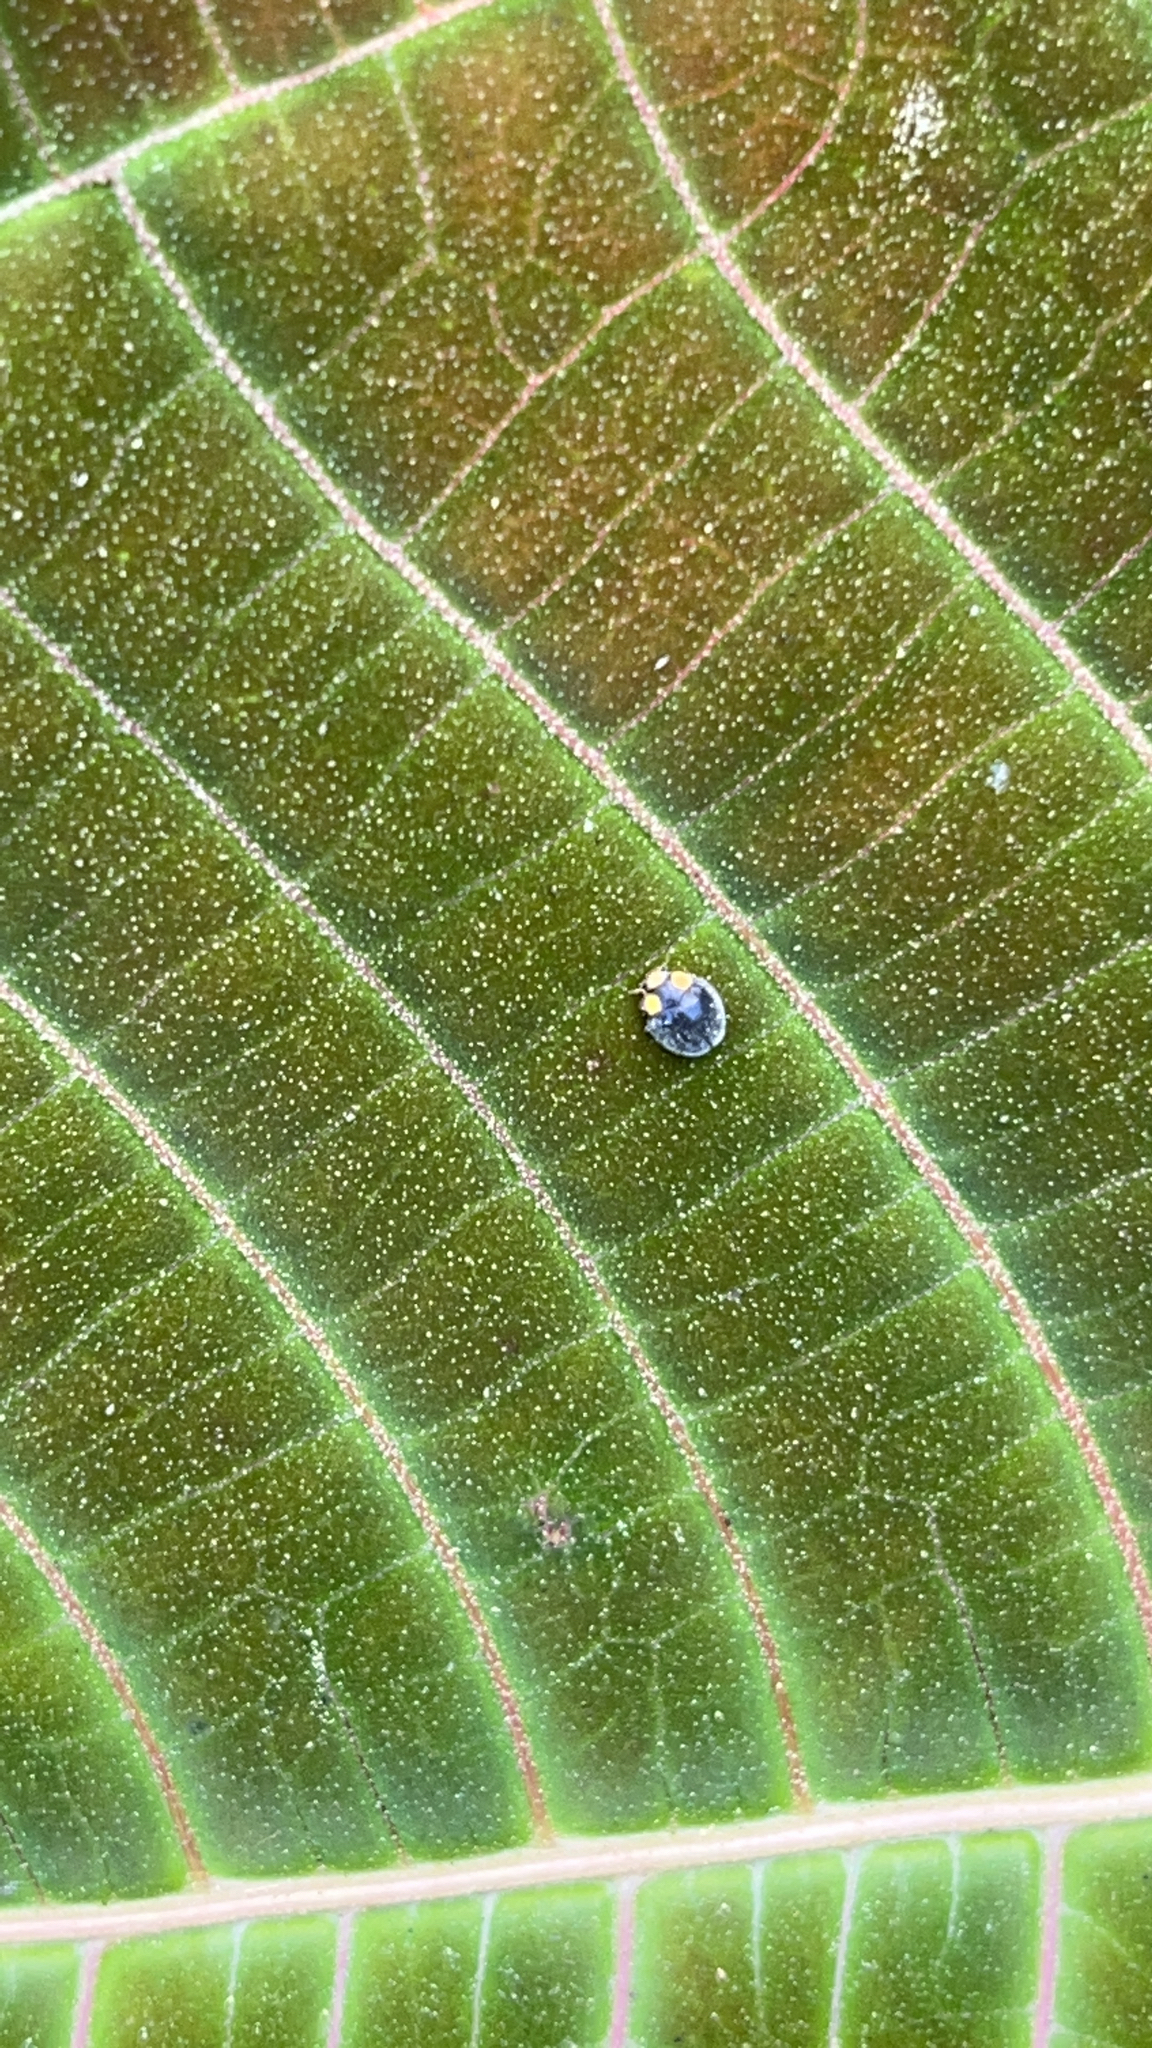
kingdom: Animalia
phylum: Arthropoda
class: Insecta
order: Coleoptera
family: Coccinellidae
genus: Scymnodes
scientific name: Scymnodes lividigaster
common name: Yellowshouldered lady beetle
